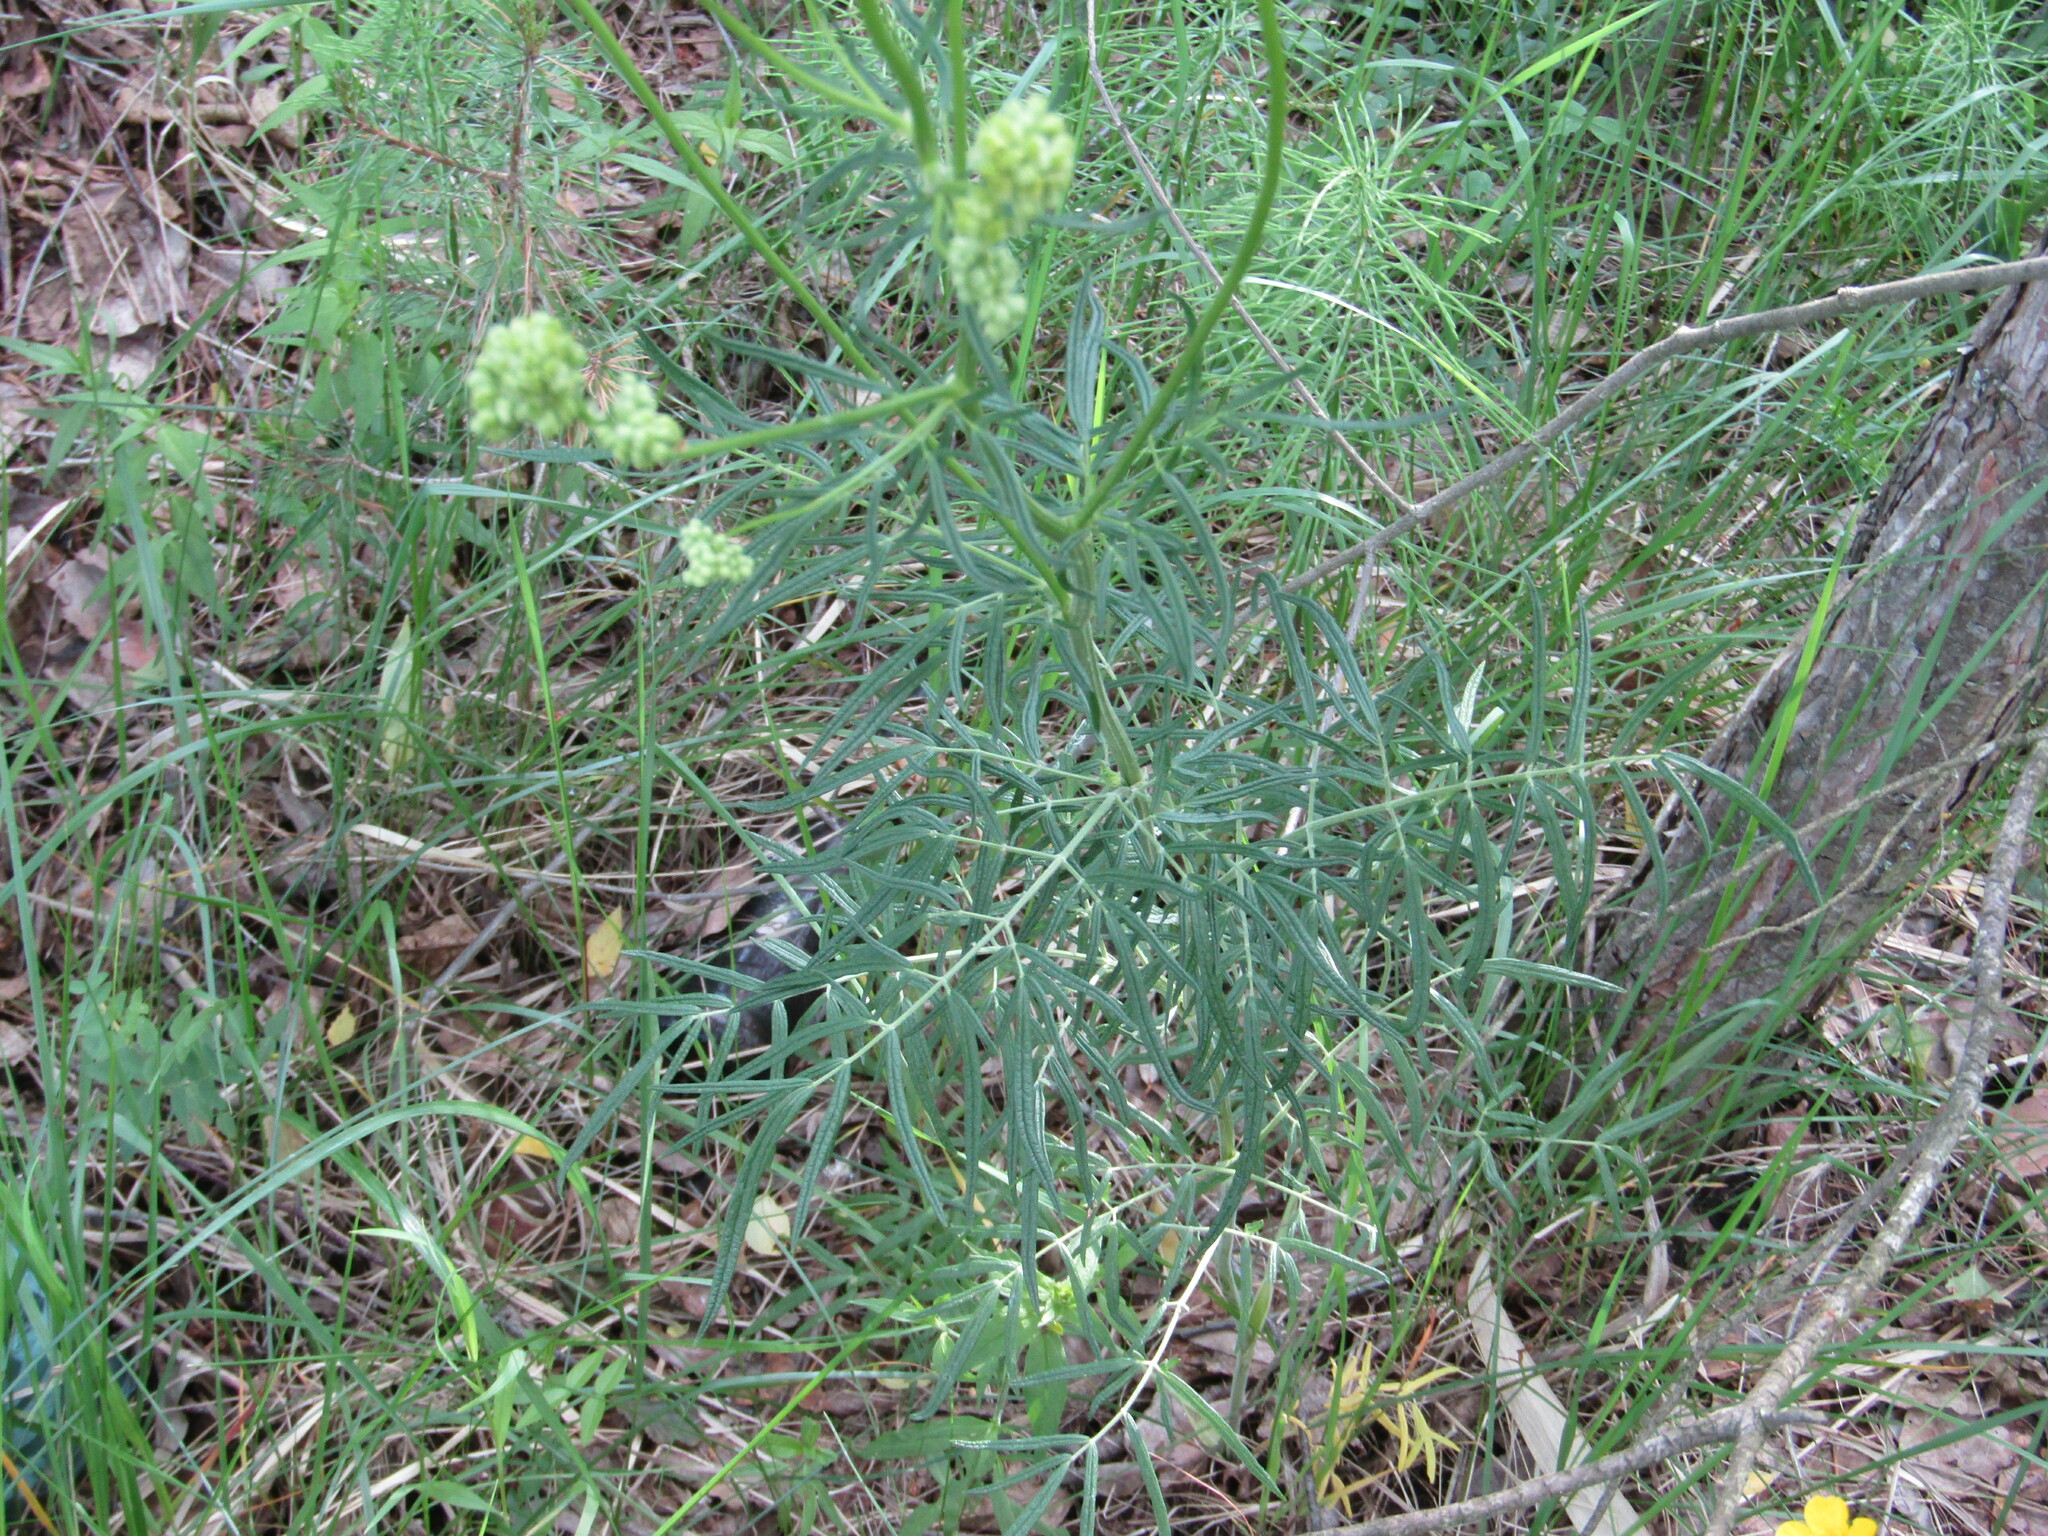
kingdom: Plantae
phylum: Tracheophyta
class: Magnoliopsida
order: Ranunculales
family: Ranunculaceae
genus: Thalictrum
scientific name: Thalictrum lucidum
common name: Shining meadow-rue
